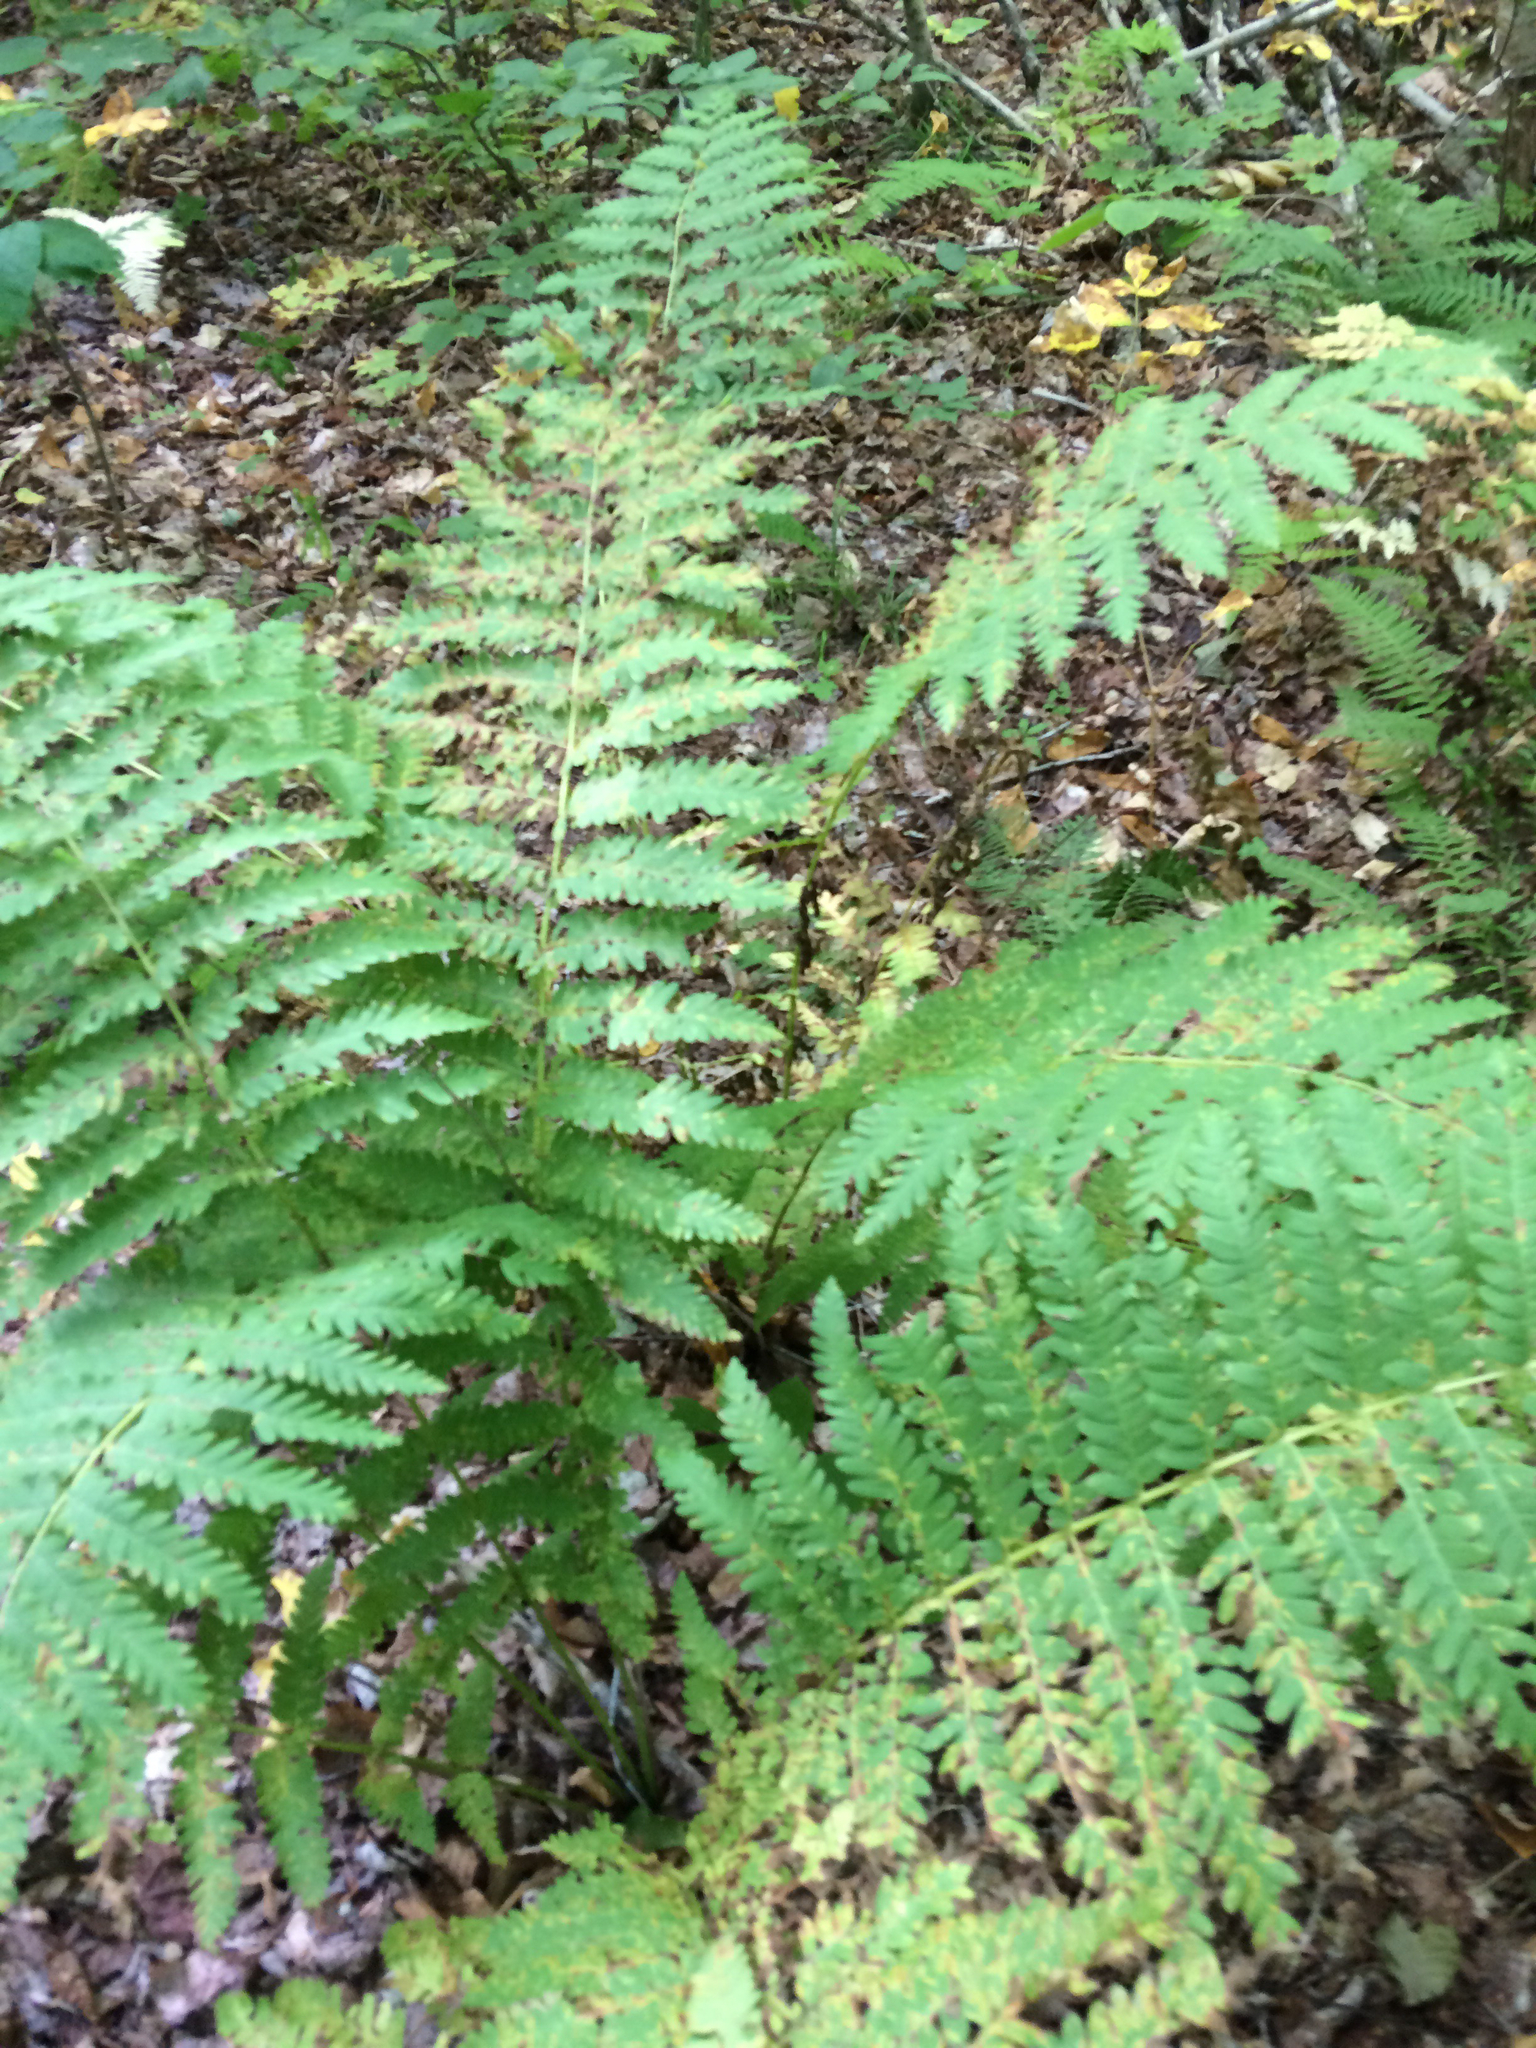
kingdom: Plantae
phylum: Tracheophyta
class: Polypodiopsida
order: Osmundales
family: Osmundaceae
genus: Claytosmunda
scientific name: Claytosmunda claytoniana
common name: Clayton's fern
